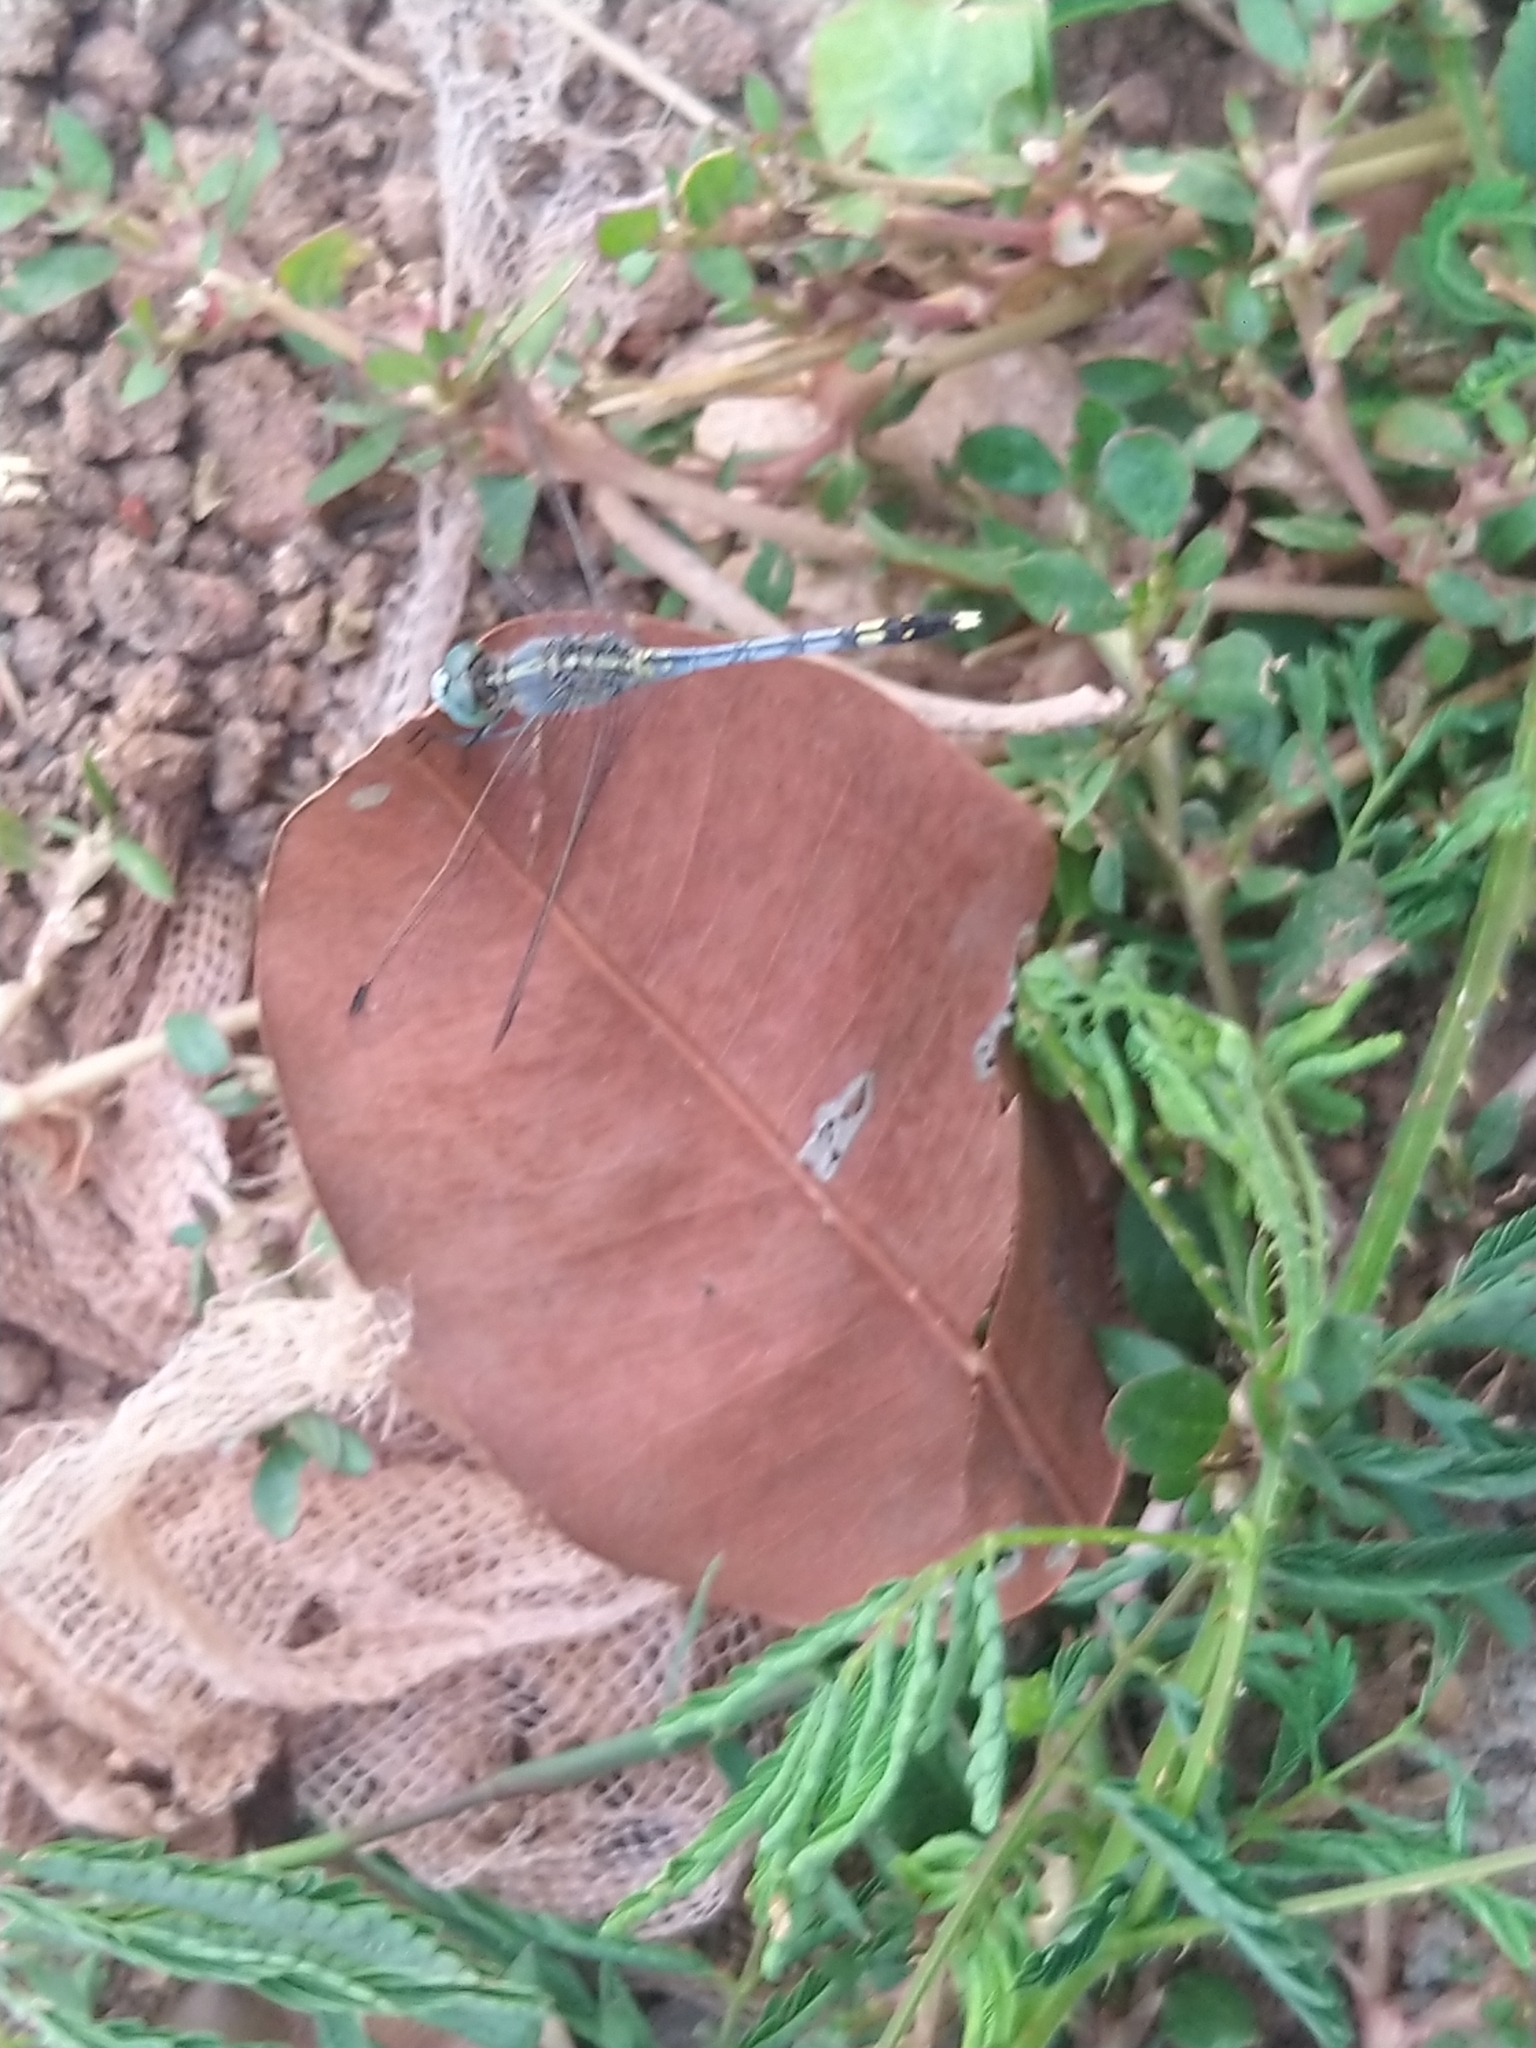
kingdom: Animalia
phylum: Arthropoda
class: Insecta
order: Odonata
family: Libellulidae
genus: Diplacodes
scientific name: Diplacodes trivialis
